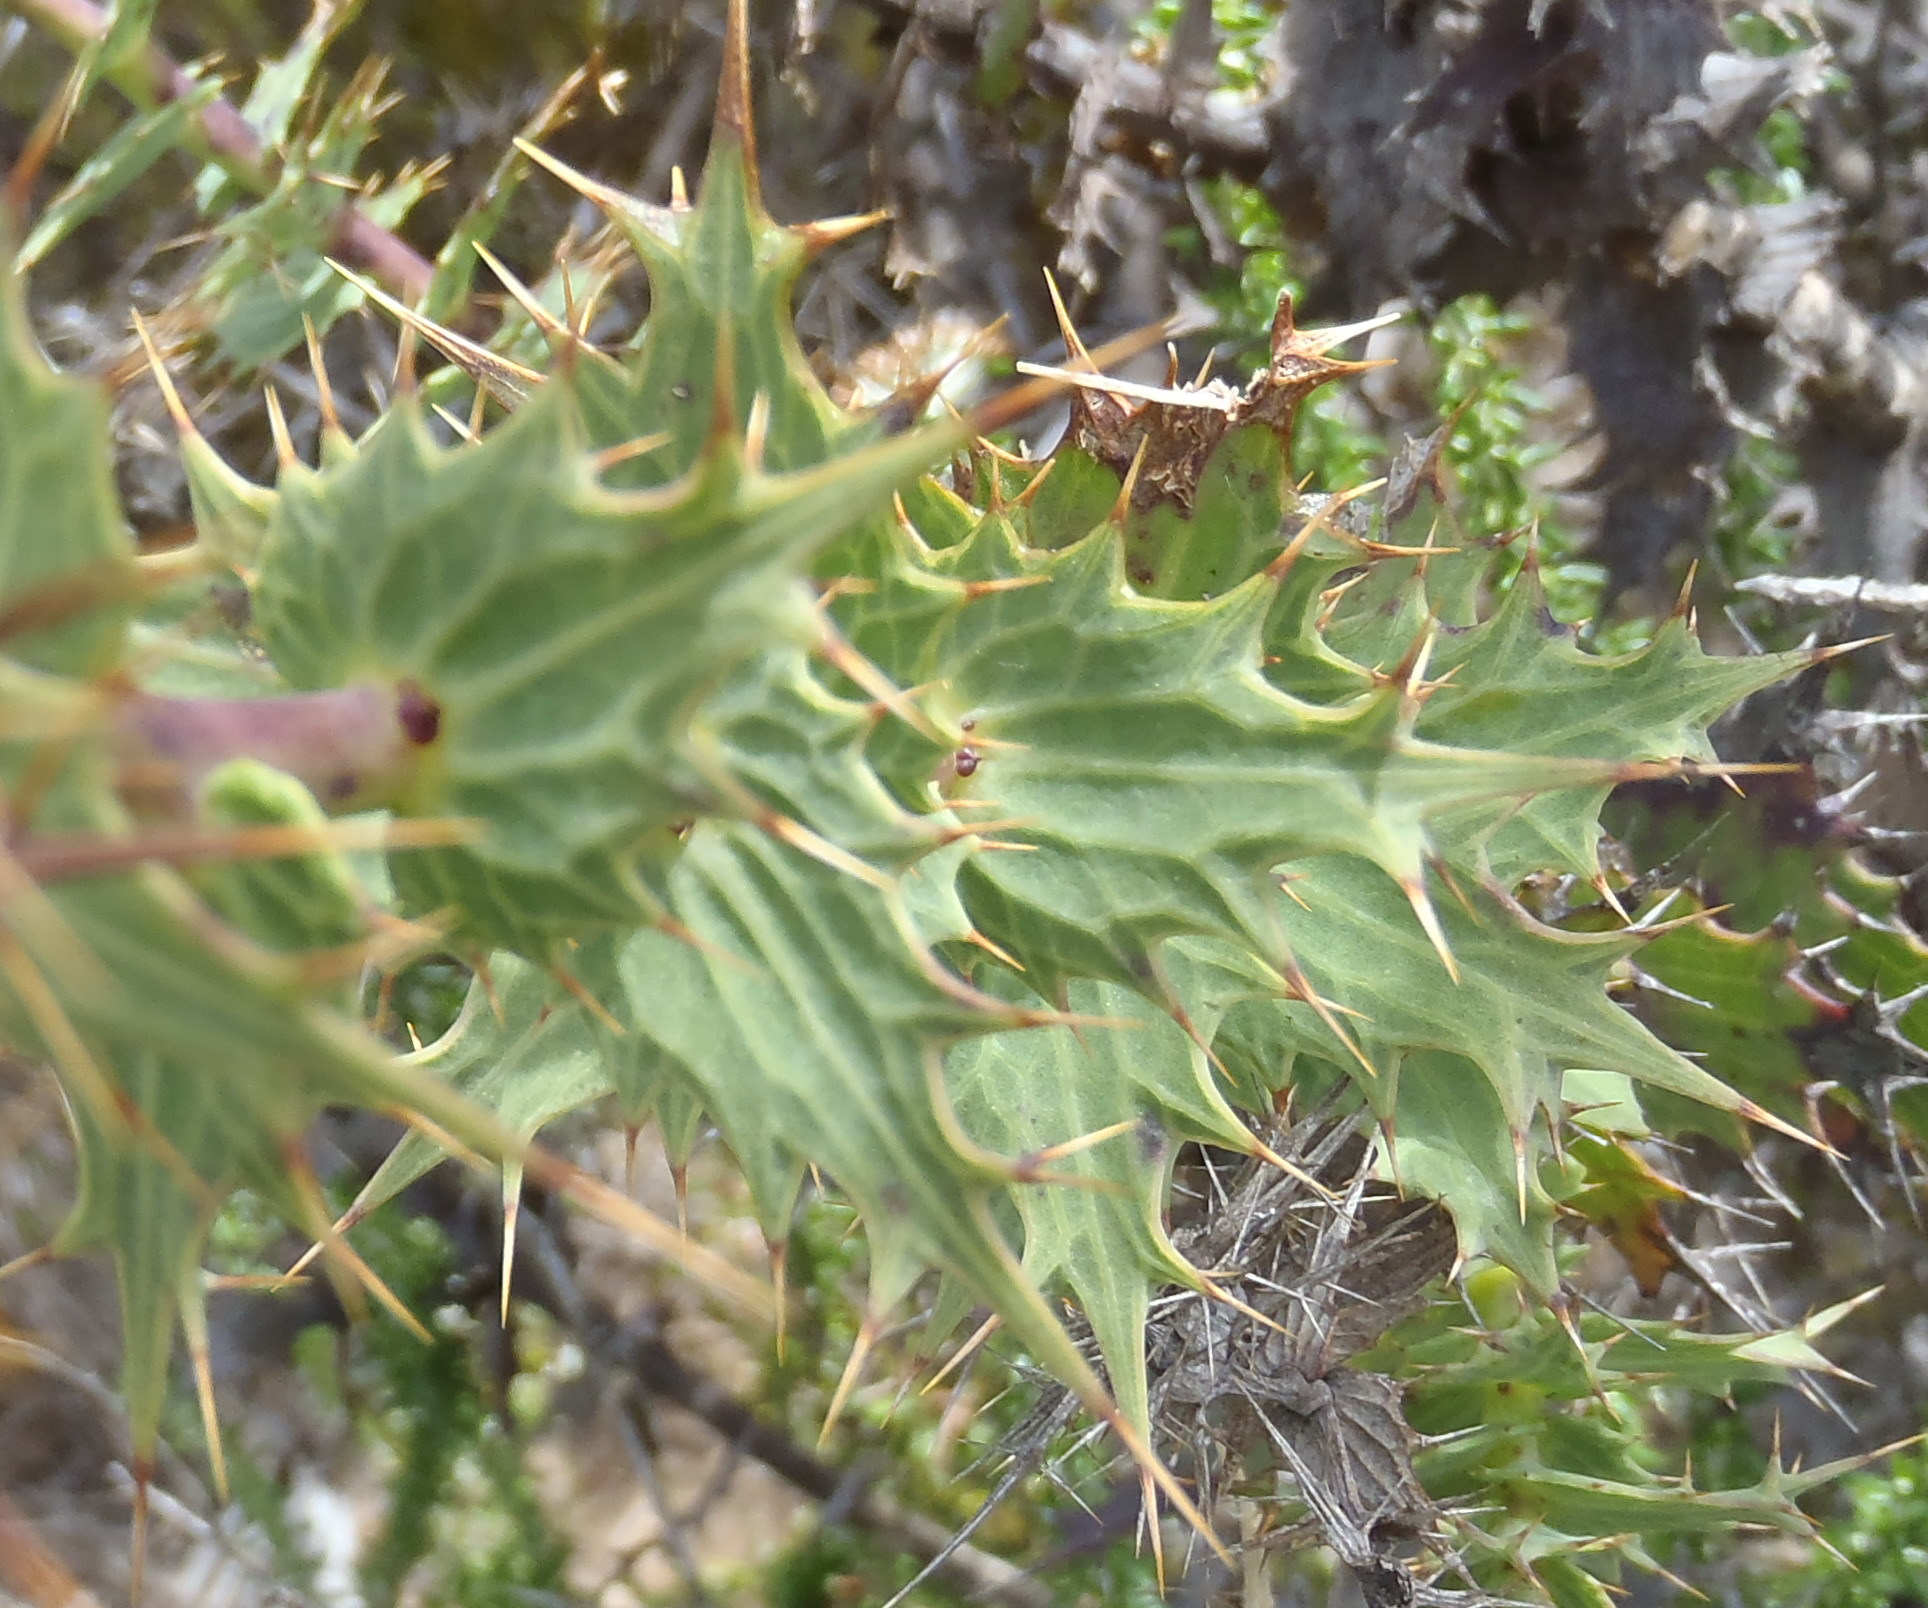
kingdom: Plantae
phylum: Tracheophyta
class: Magnoliopsida
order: Asterales
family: Asteraceae
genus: Berkheya
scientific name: Berkheya cruciata
